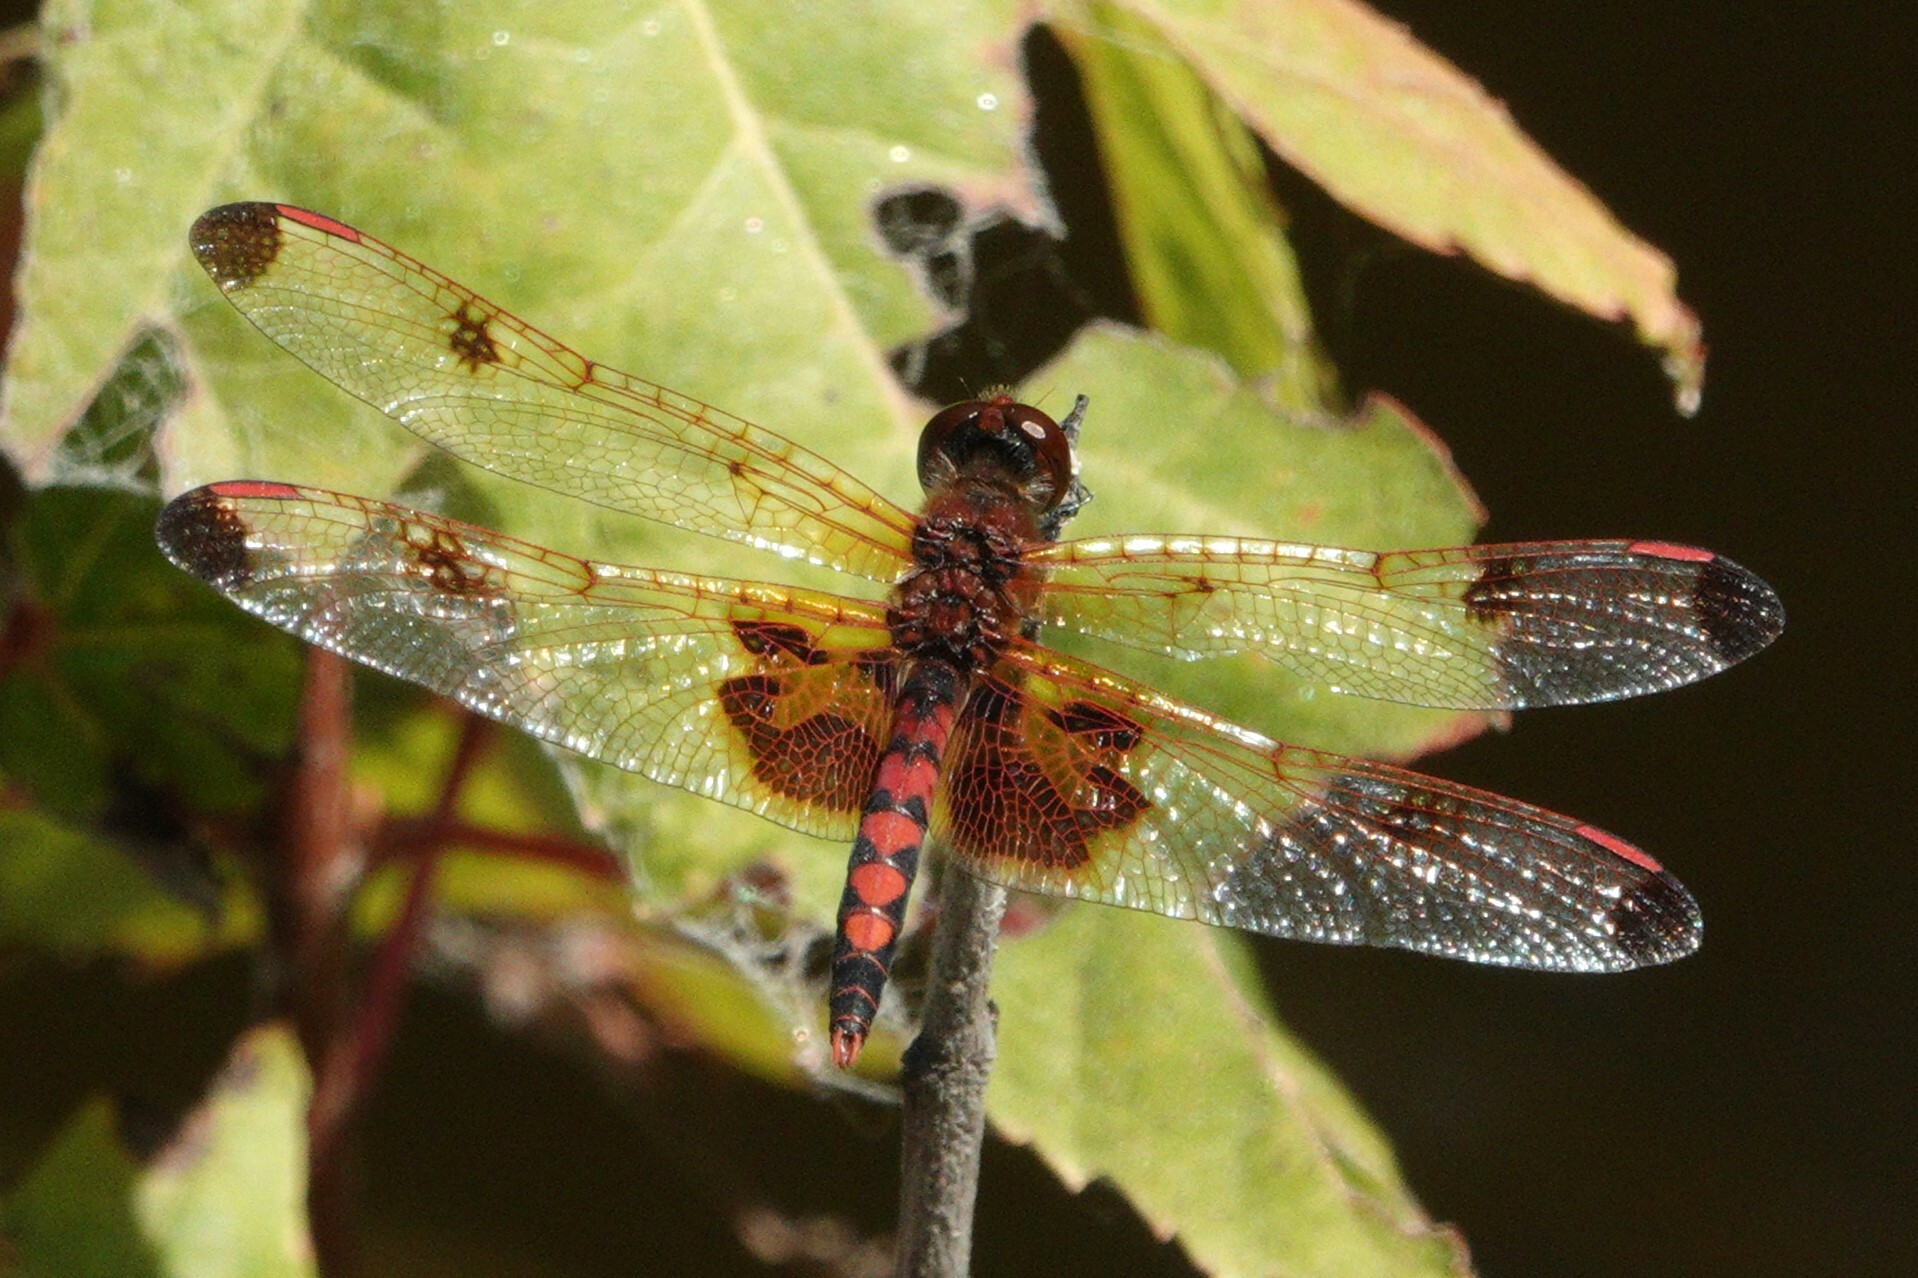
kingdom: Animalia
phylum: Arthropoda
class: Insecta
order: Odonata
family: Libellulidae
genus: Celithemis
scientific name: Celithemis elisa
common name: Calico pennant
